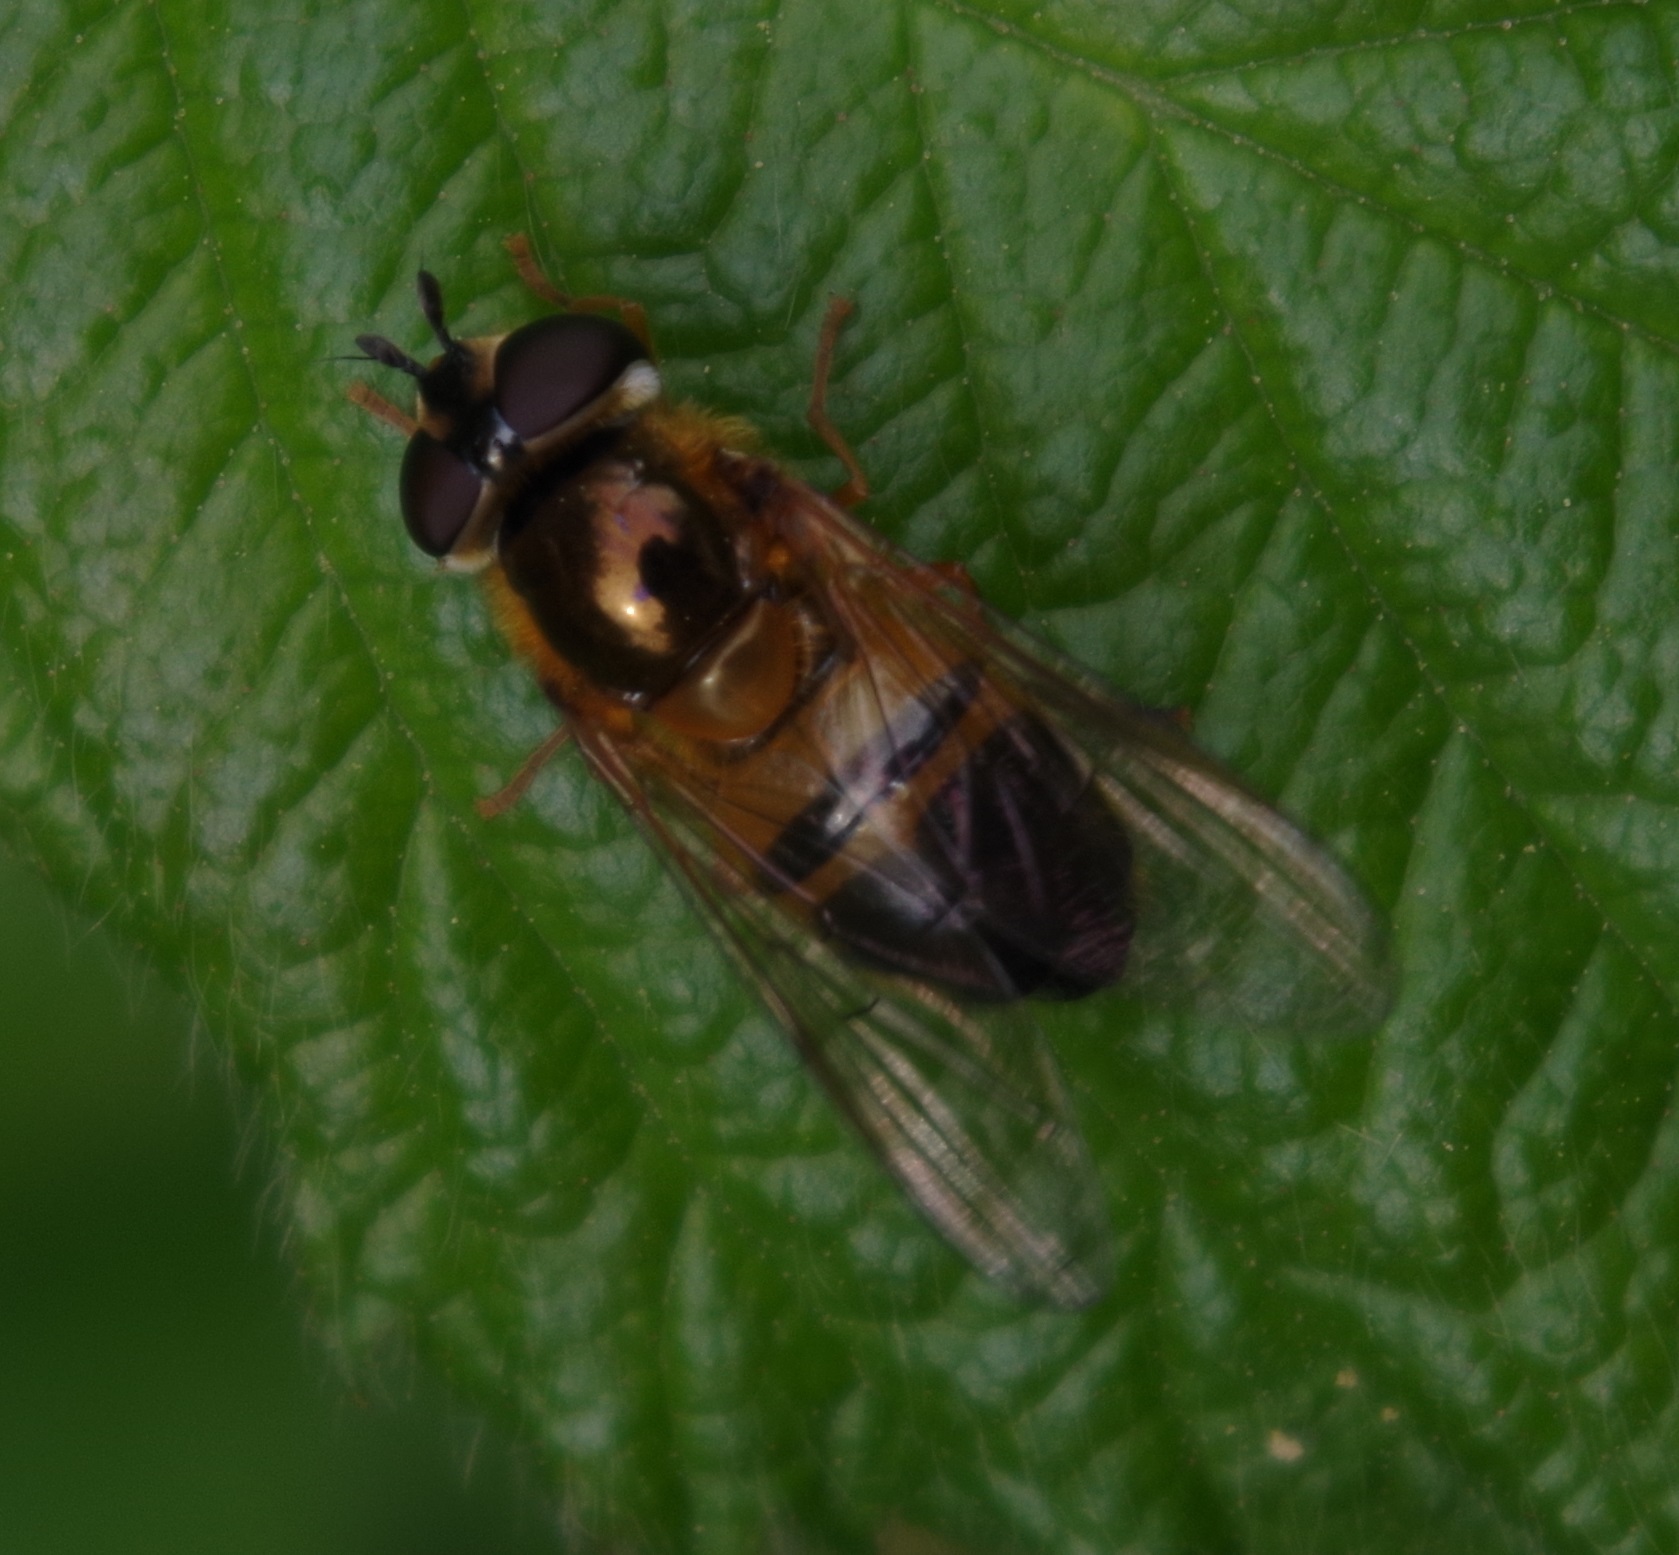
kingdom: Animalia
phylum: Arthropoda
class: Insecta
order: Diptera
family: Syrphidae
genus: Epistrophe
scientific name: Epistrophe eligans
